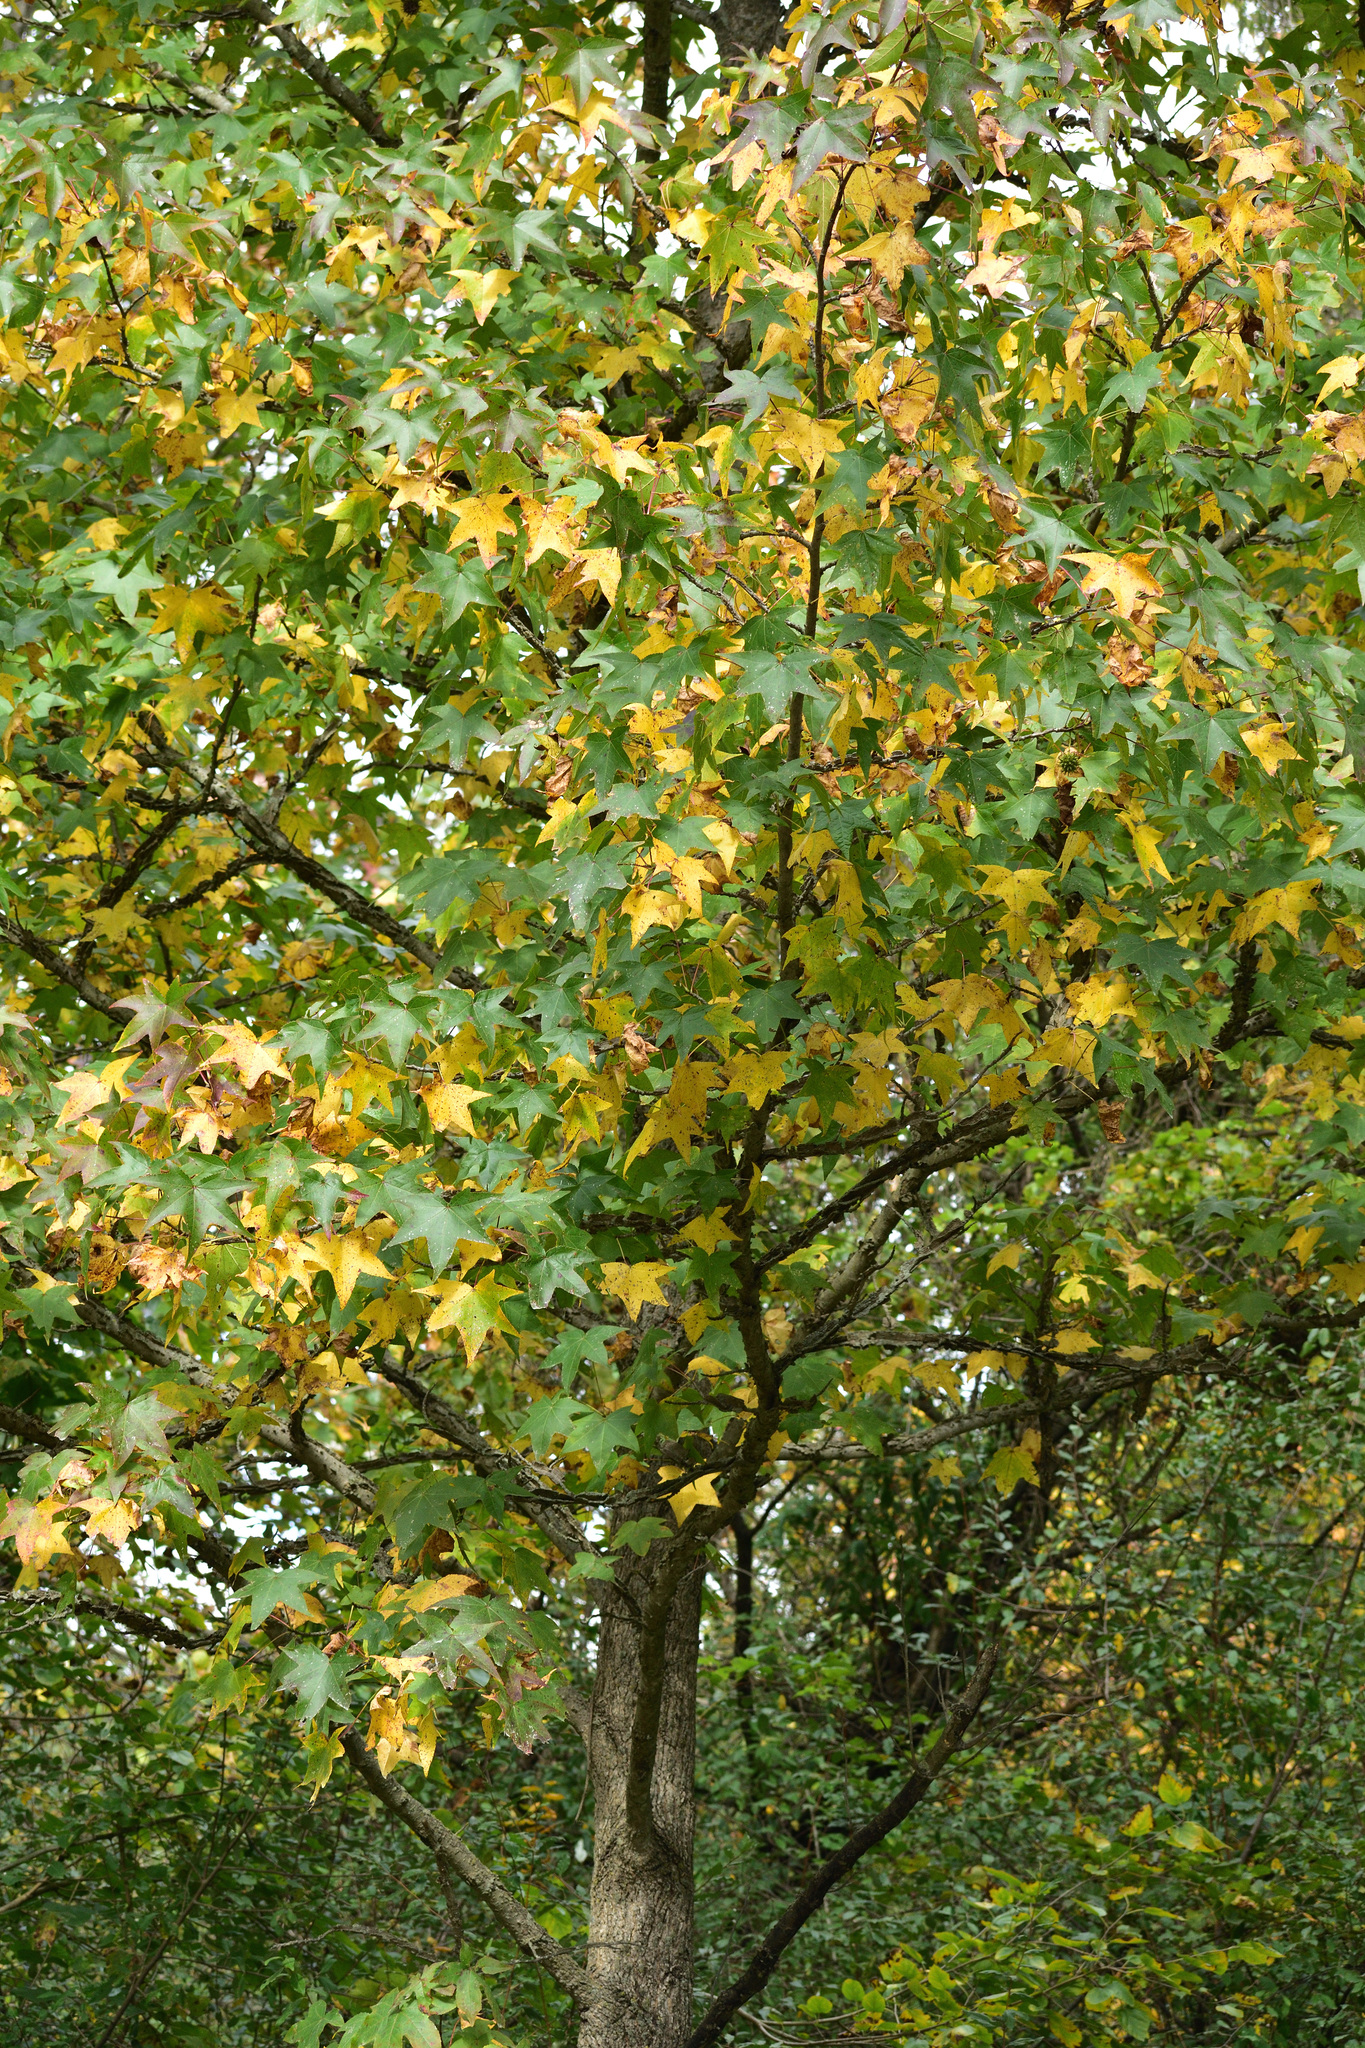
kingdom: Plantae
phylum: Tracheophyta
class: Magnoliopsida
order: Saxifragales
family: Altingiaceae
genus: Liquidambar
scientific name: Liquidambar styraciflua
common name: Sweet gum
